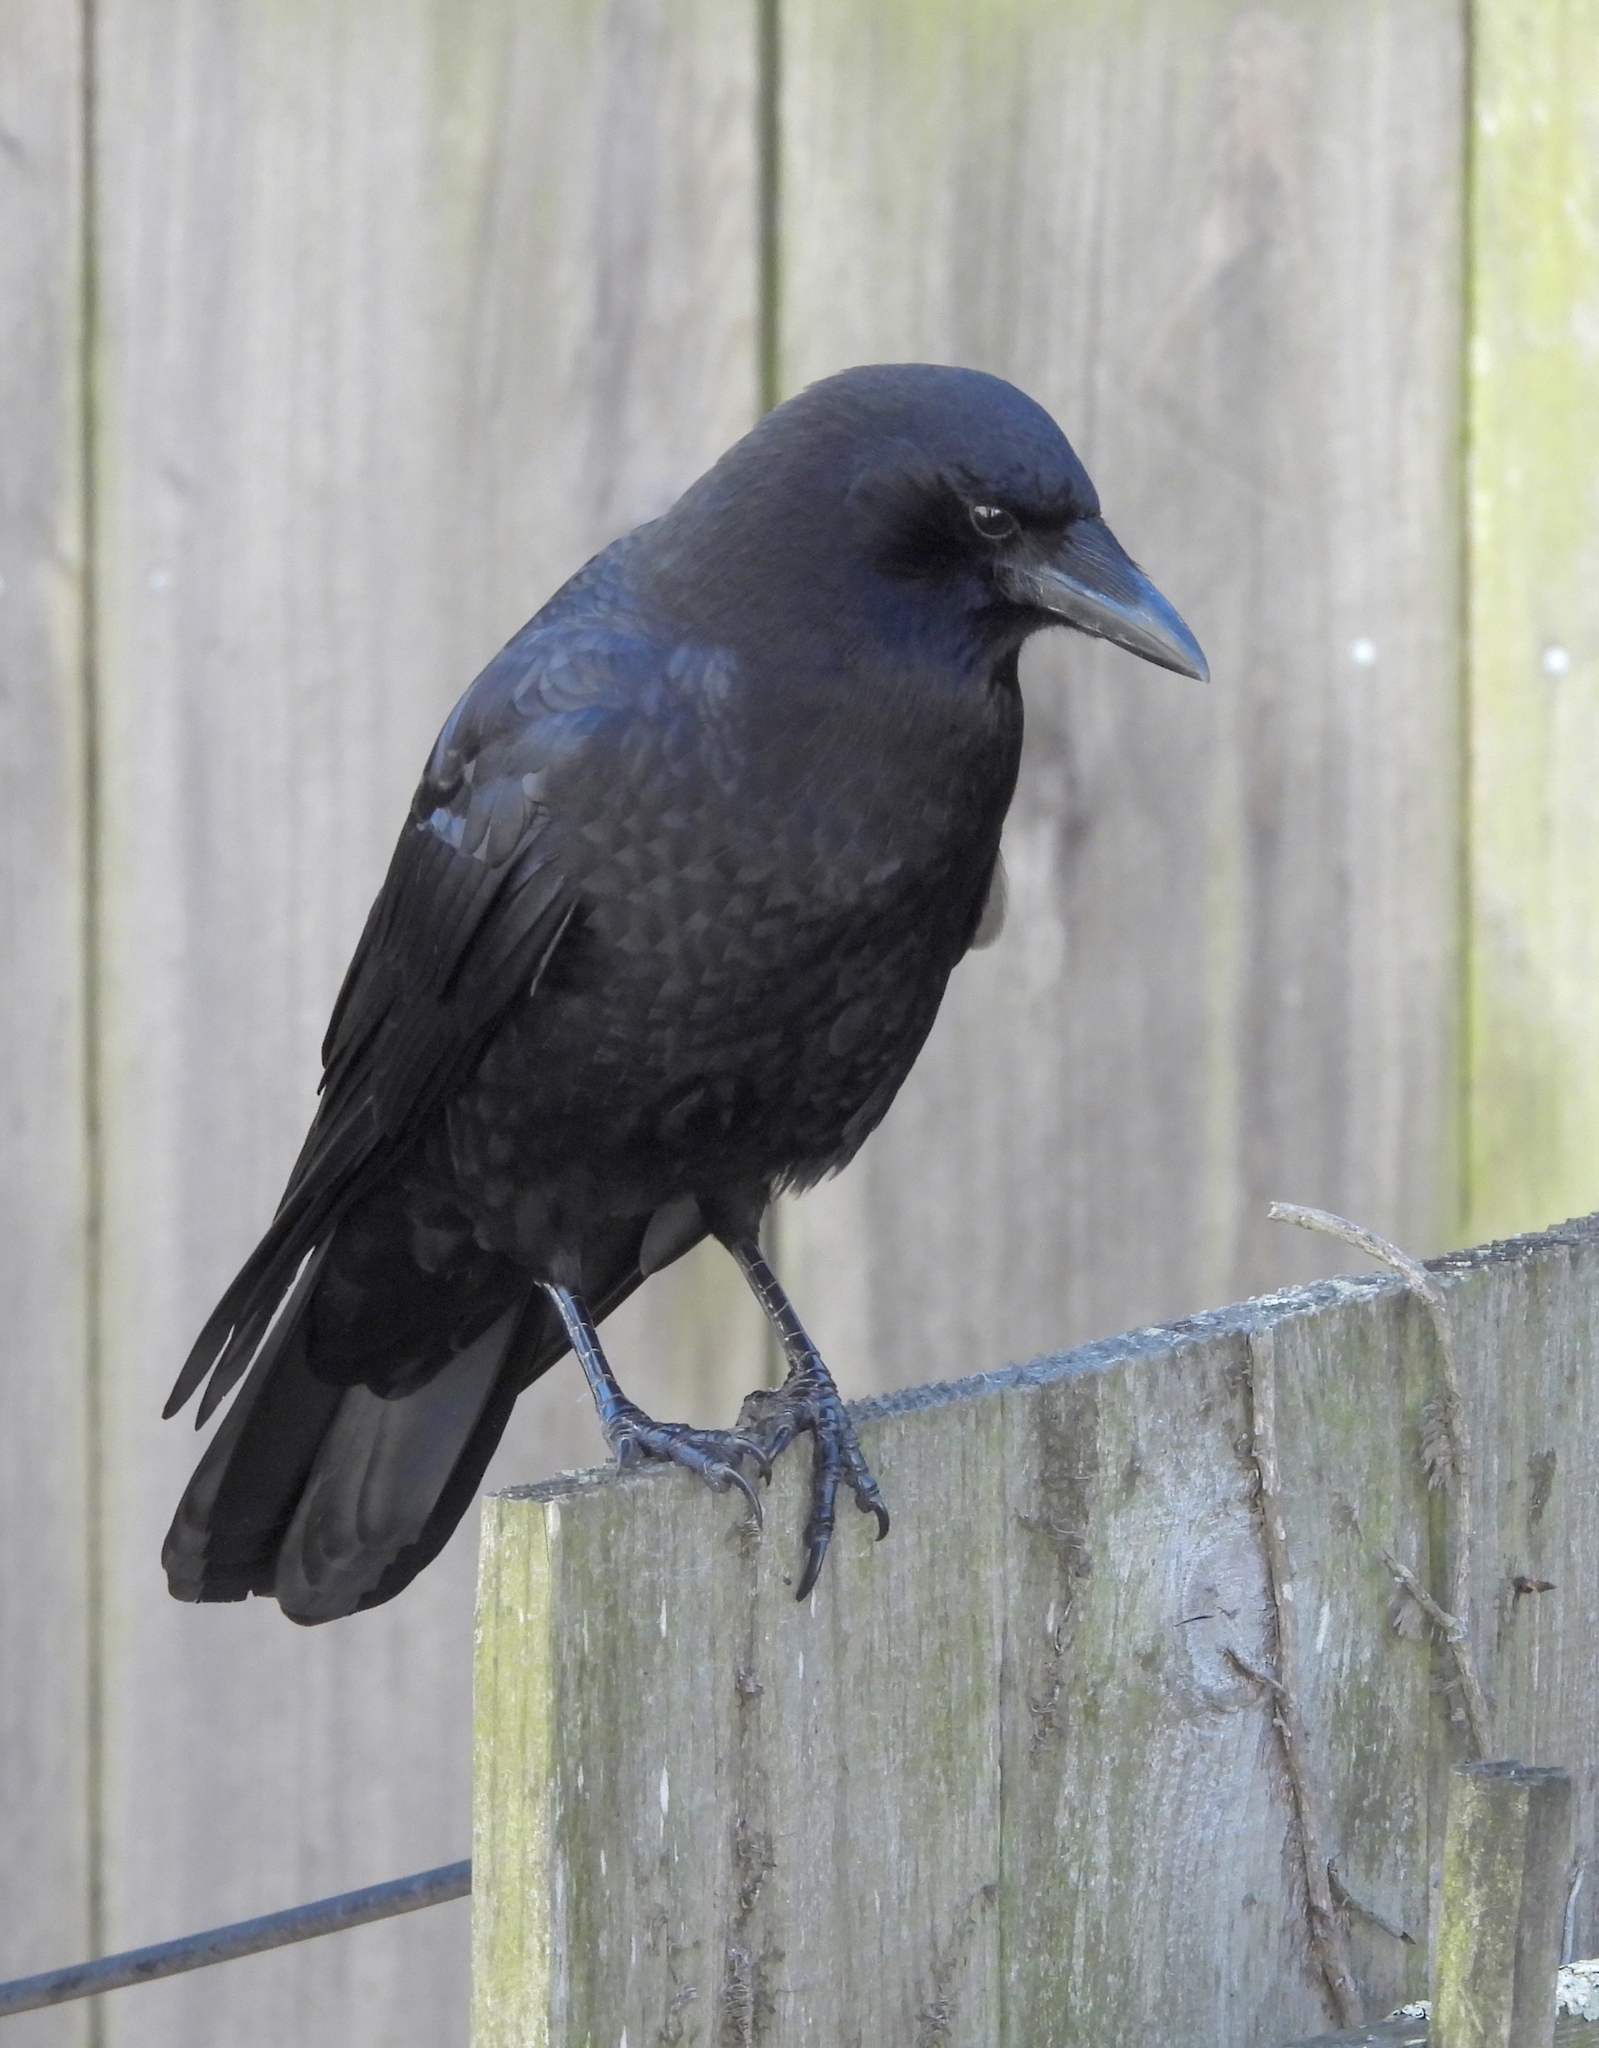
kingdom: Animalia
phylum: Chordata
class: Aves
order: Passeriformes
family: Corvidae
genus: Corvus
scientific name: Corvus brachyrhynchos
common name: American crow
